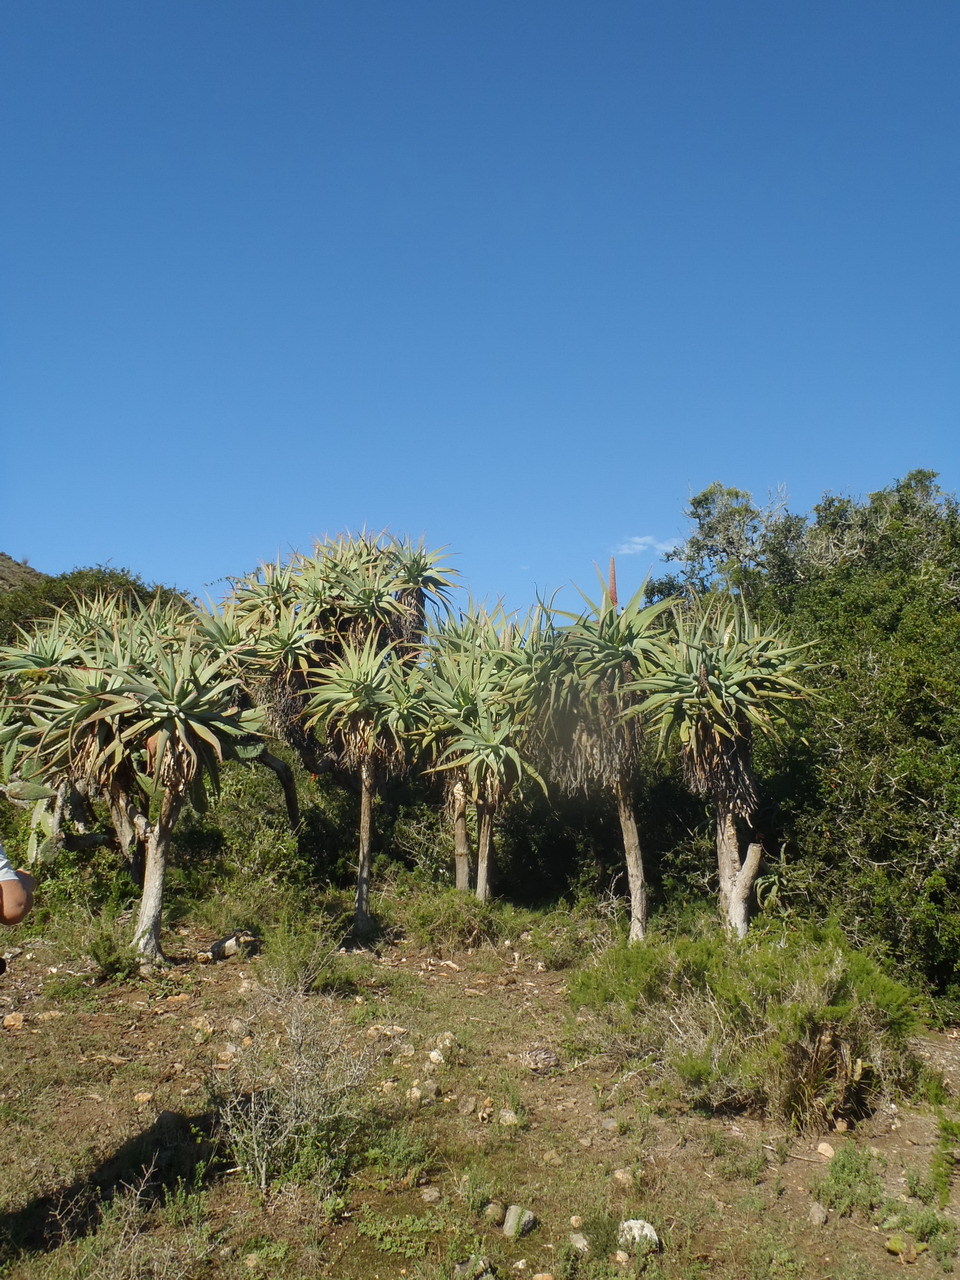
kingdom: Plantae
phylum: Tracheophyta
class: Liliopsida
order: Asparagales
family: Asphodelaceae
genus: Aloe
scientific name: Aloe speciosa
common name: Beautiful aloe
